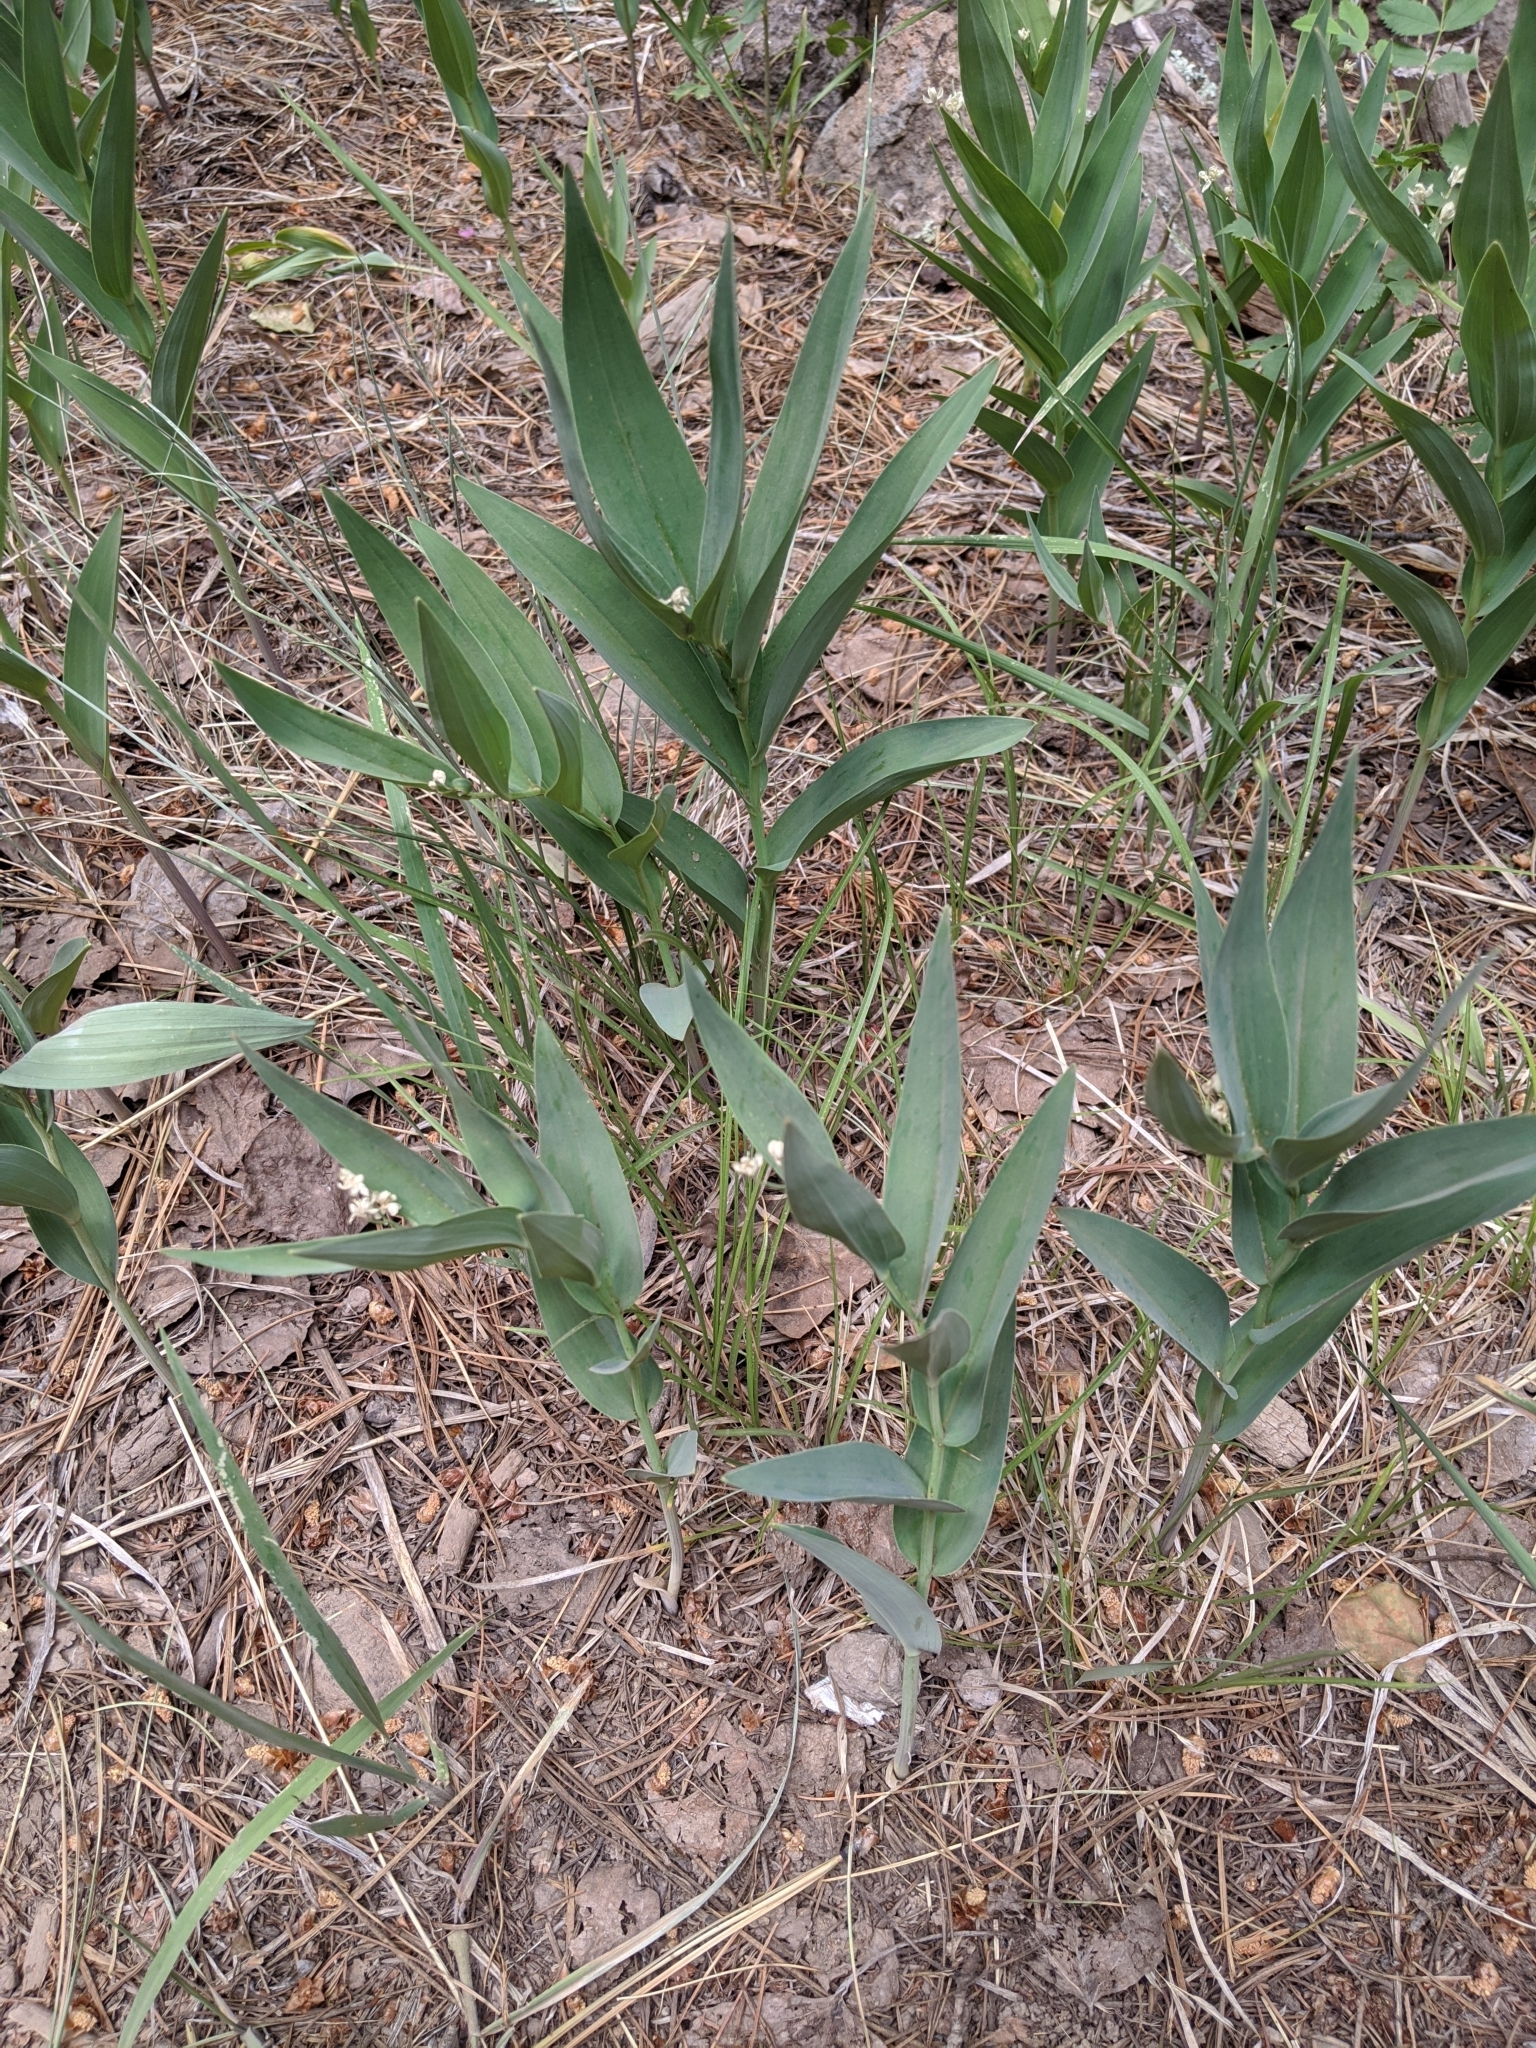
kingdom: Plantae
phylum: Tracheophyta
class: Liliopsida
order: Asparagales
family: Asparagaceae
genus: Maianthemum
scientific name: Maianthemum stellatum
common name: Little false solomon's seal
